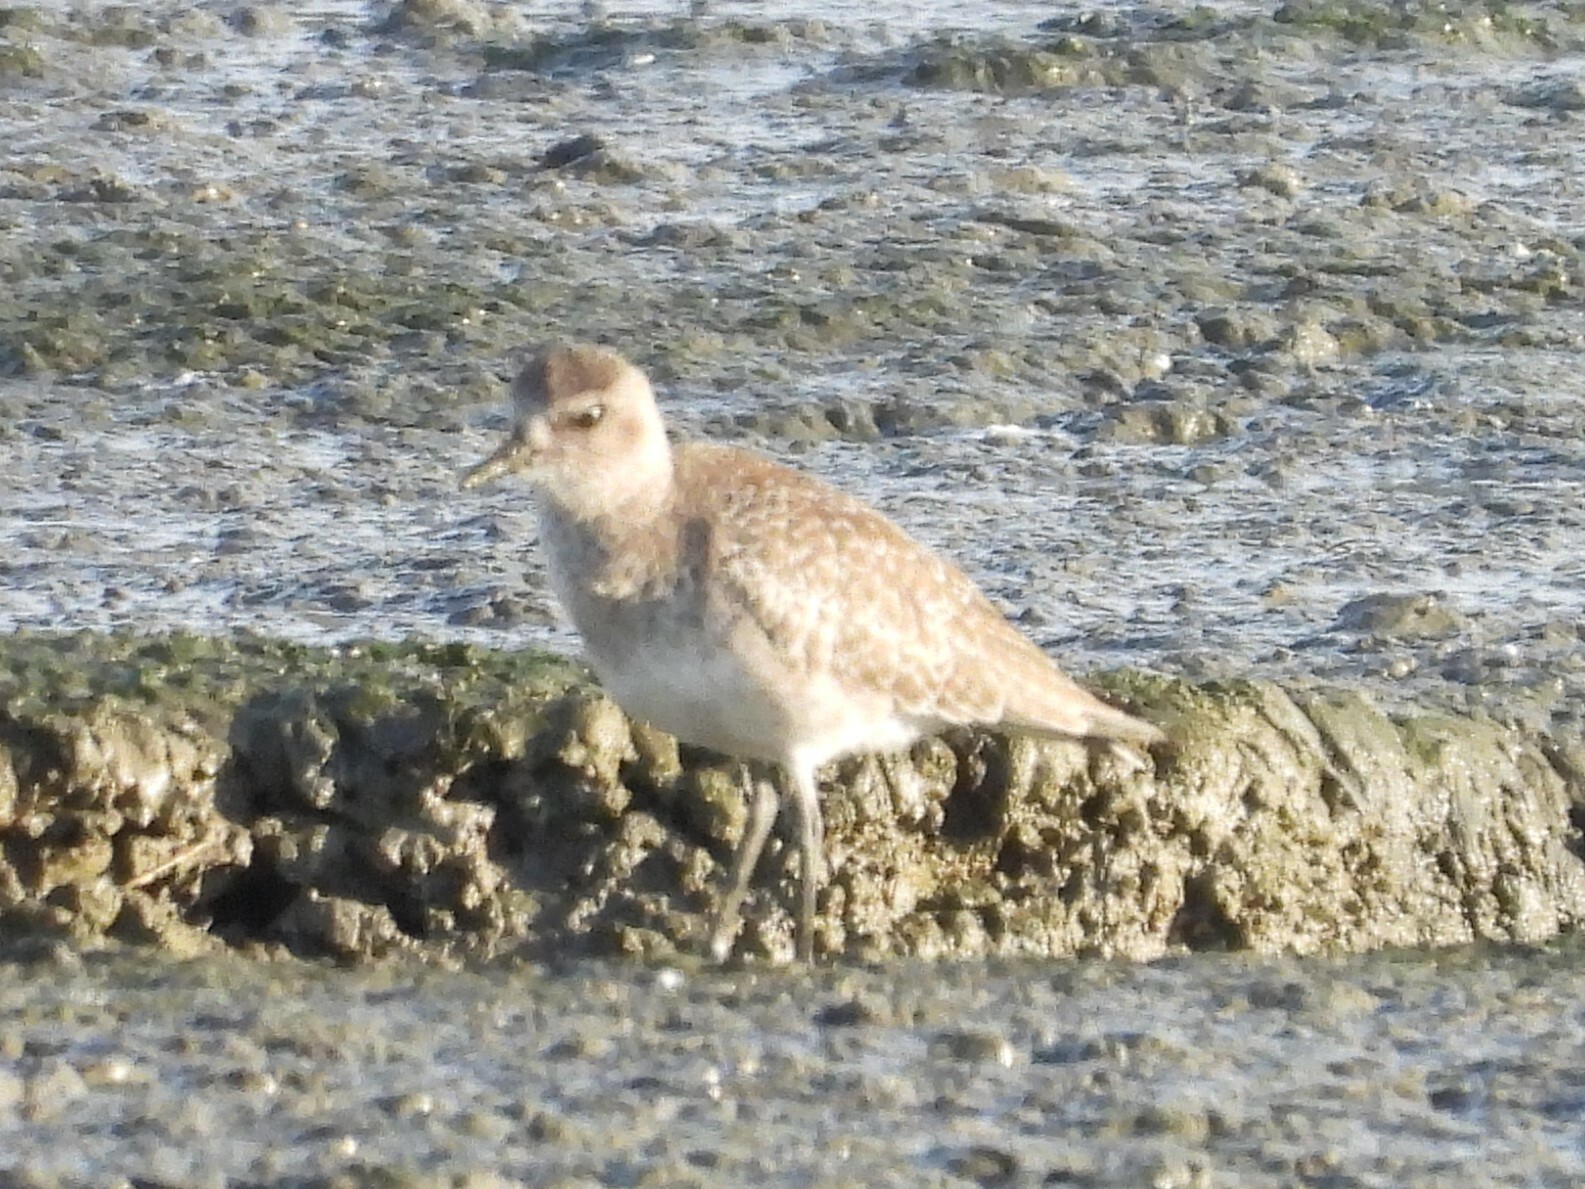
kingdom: Animalia
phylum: Chordata
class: Aves
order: Charadriiformes
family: Charadriidae
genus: Pluvialis
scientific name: Pluvialis squatarola
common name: Grey plover
